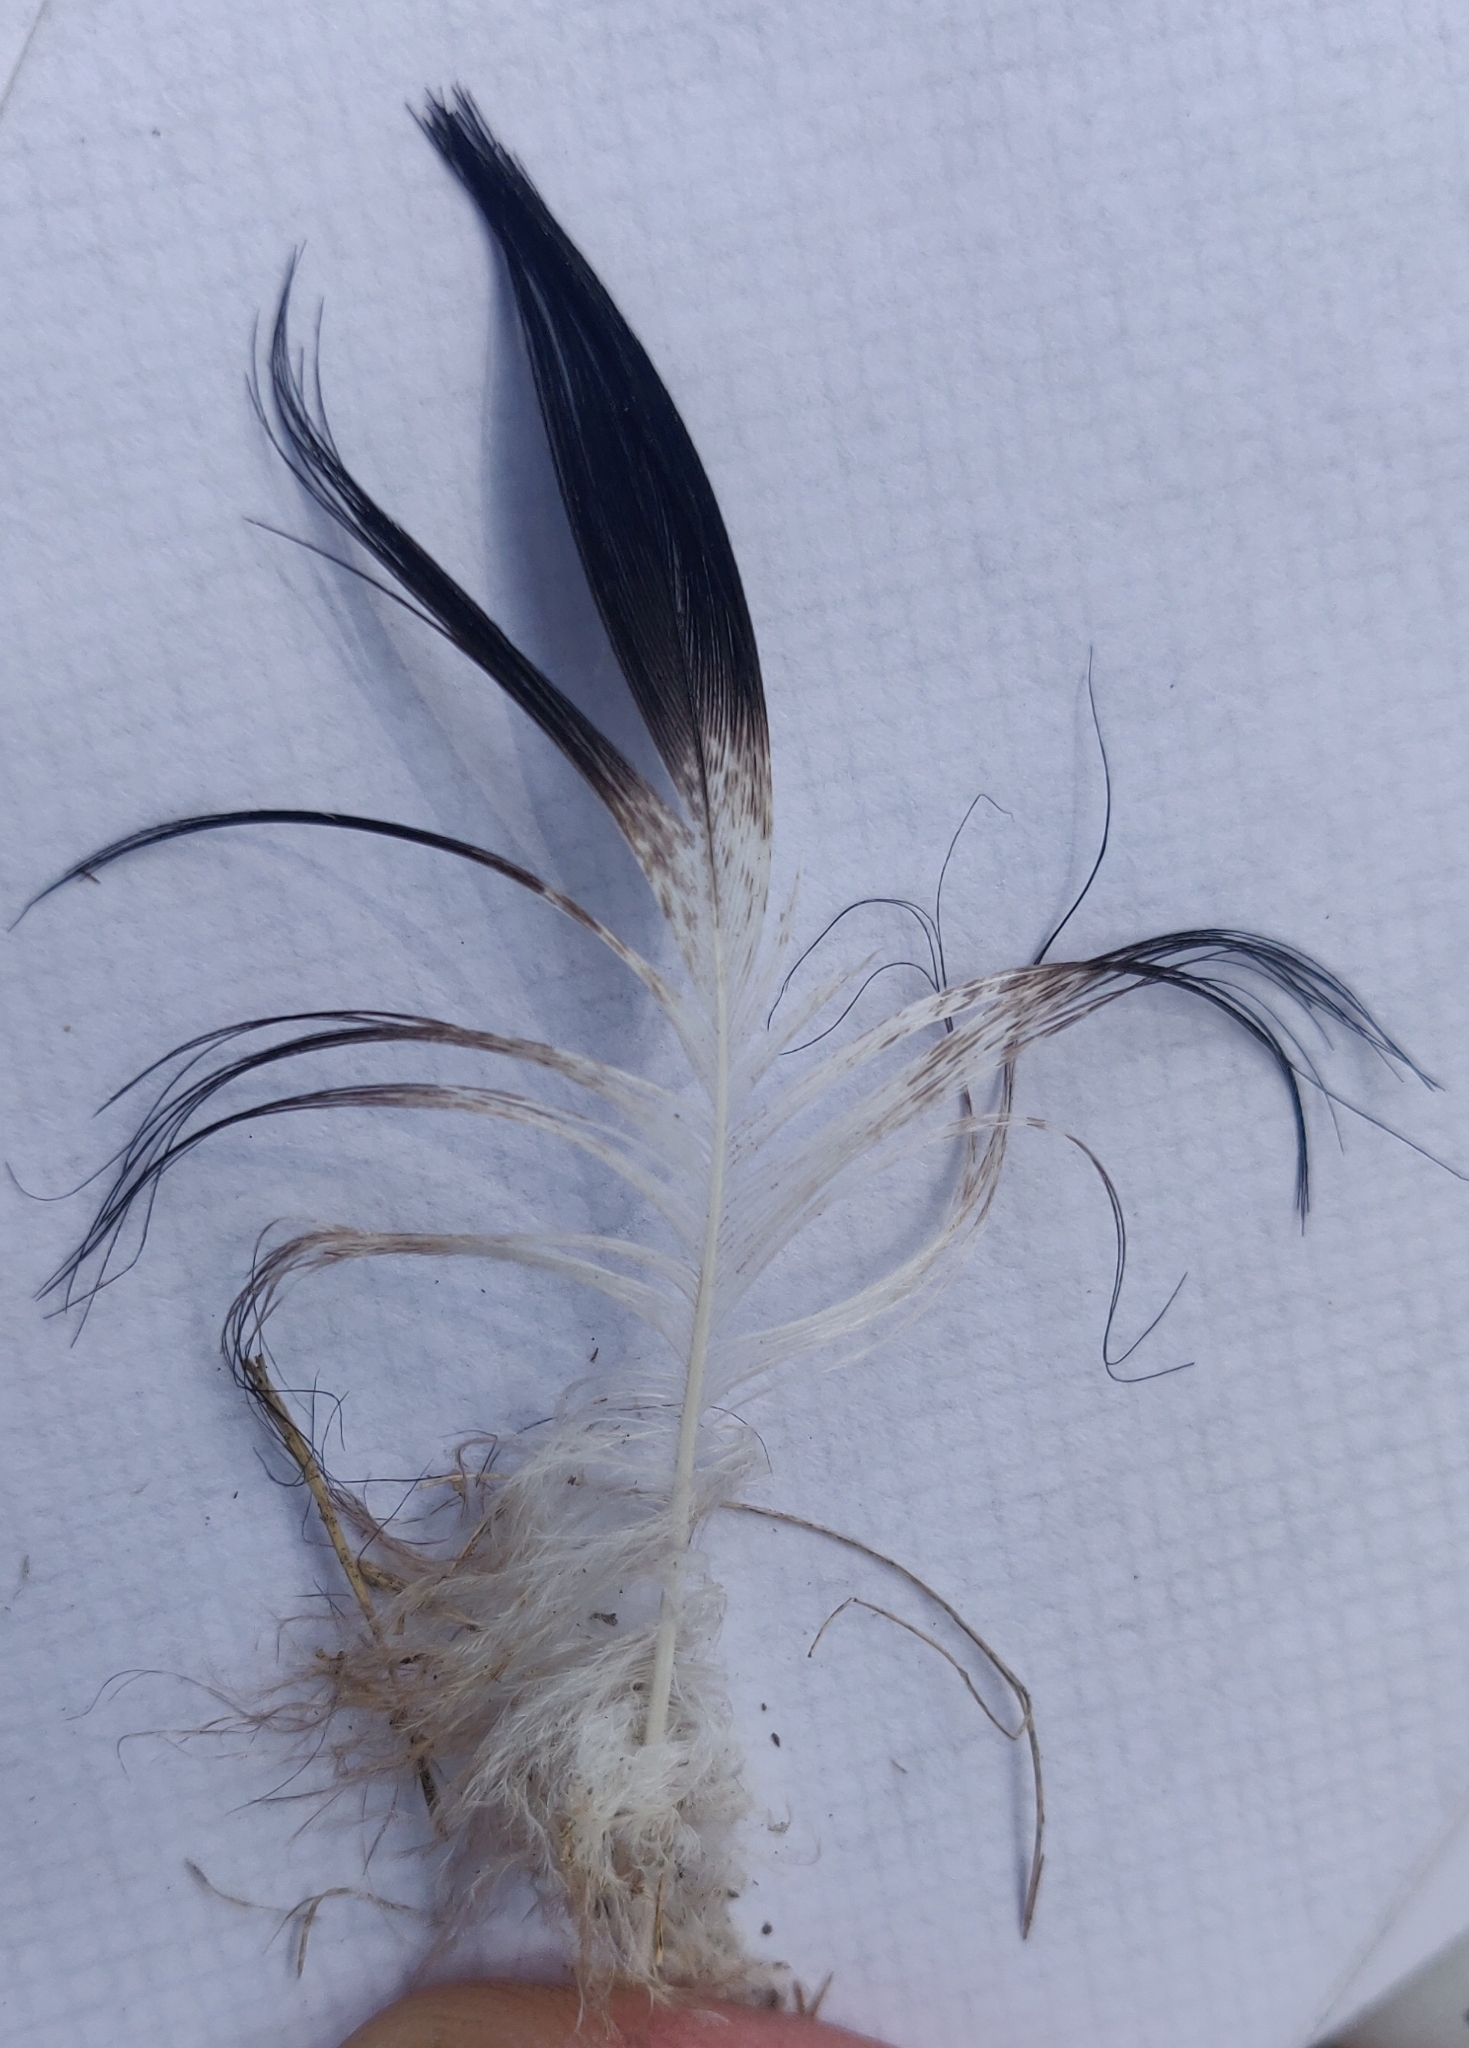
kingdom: Animalia
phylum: Chordata
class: Aves
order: Anseriformes
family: Anatidae
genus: Anas
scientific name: Anas platyrhynchos
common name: Mallard
